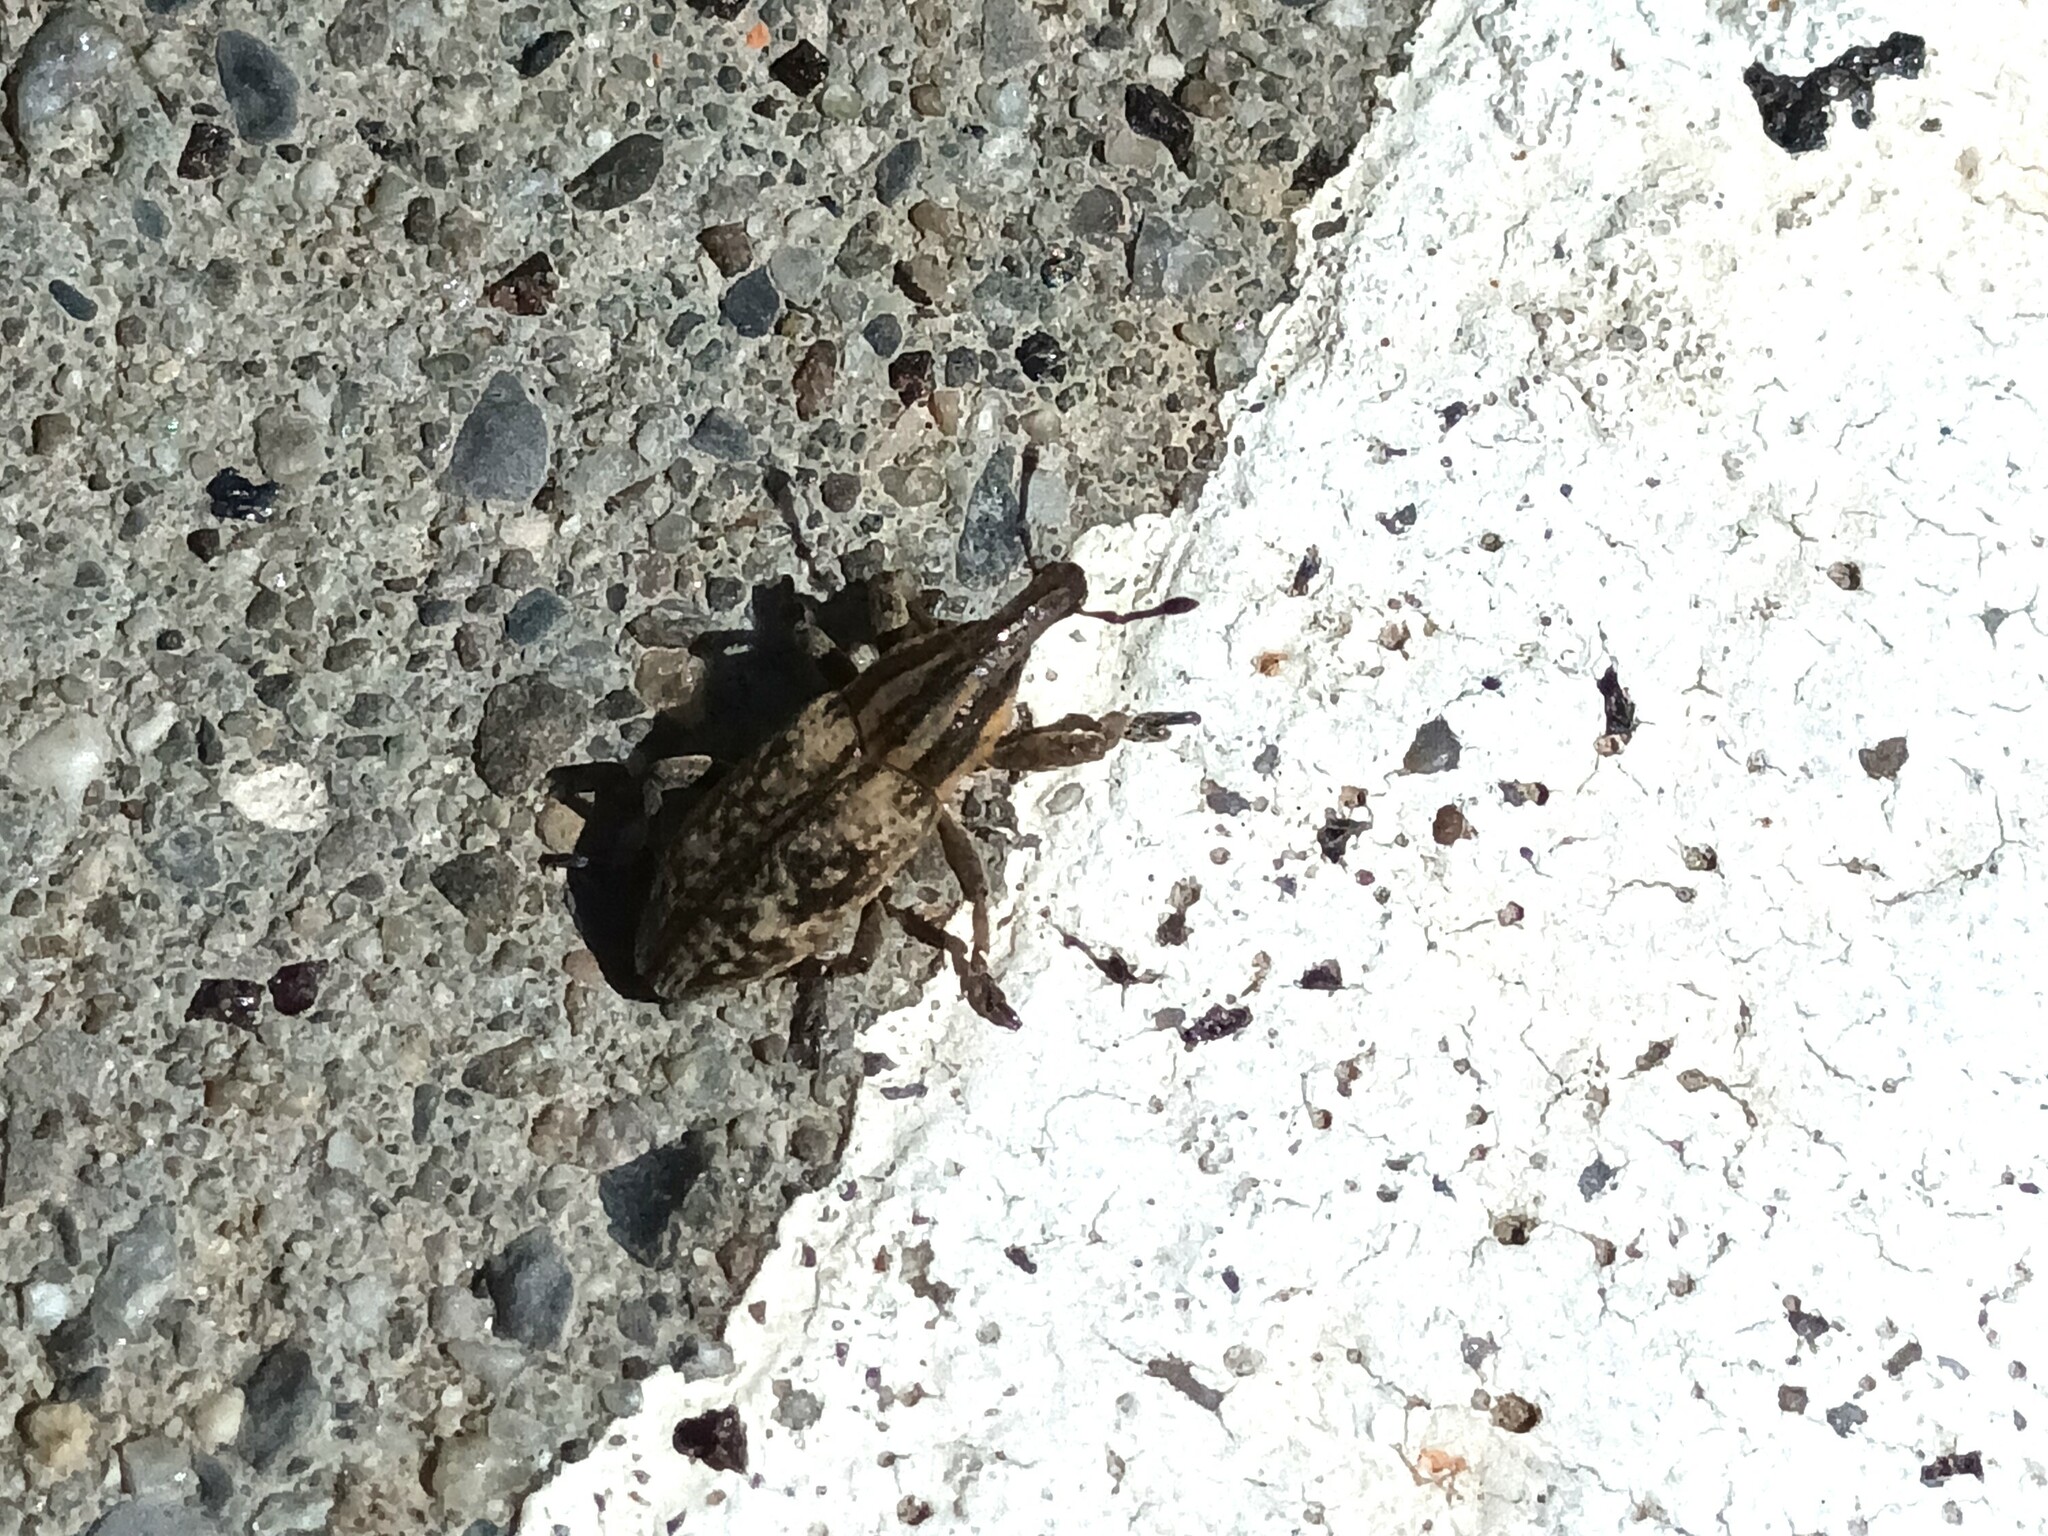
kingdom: Animalia
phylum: Arthropoda
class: Insecta
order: Coleoptera
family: Curculionidae
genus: Pseudocleonus
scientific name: Pseudocleonus cinereus
